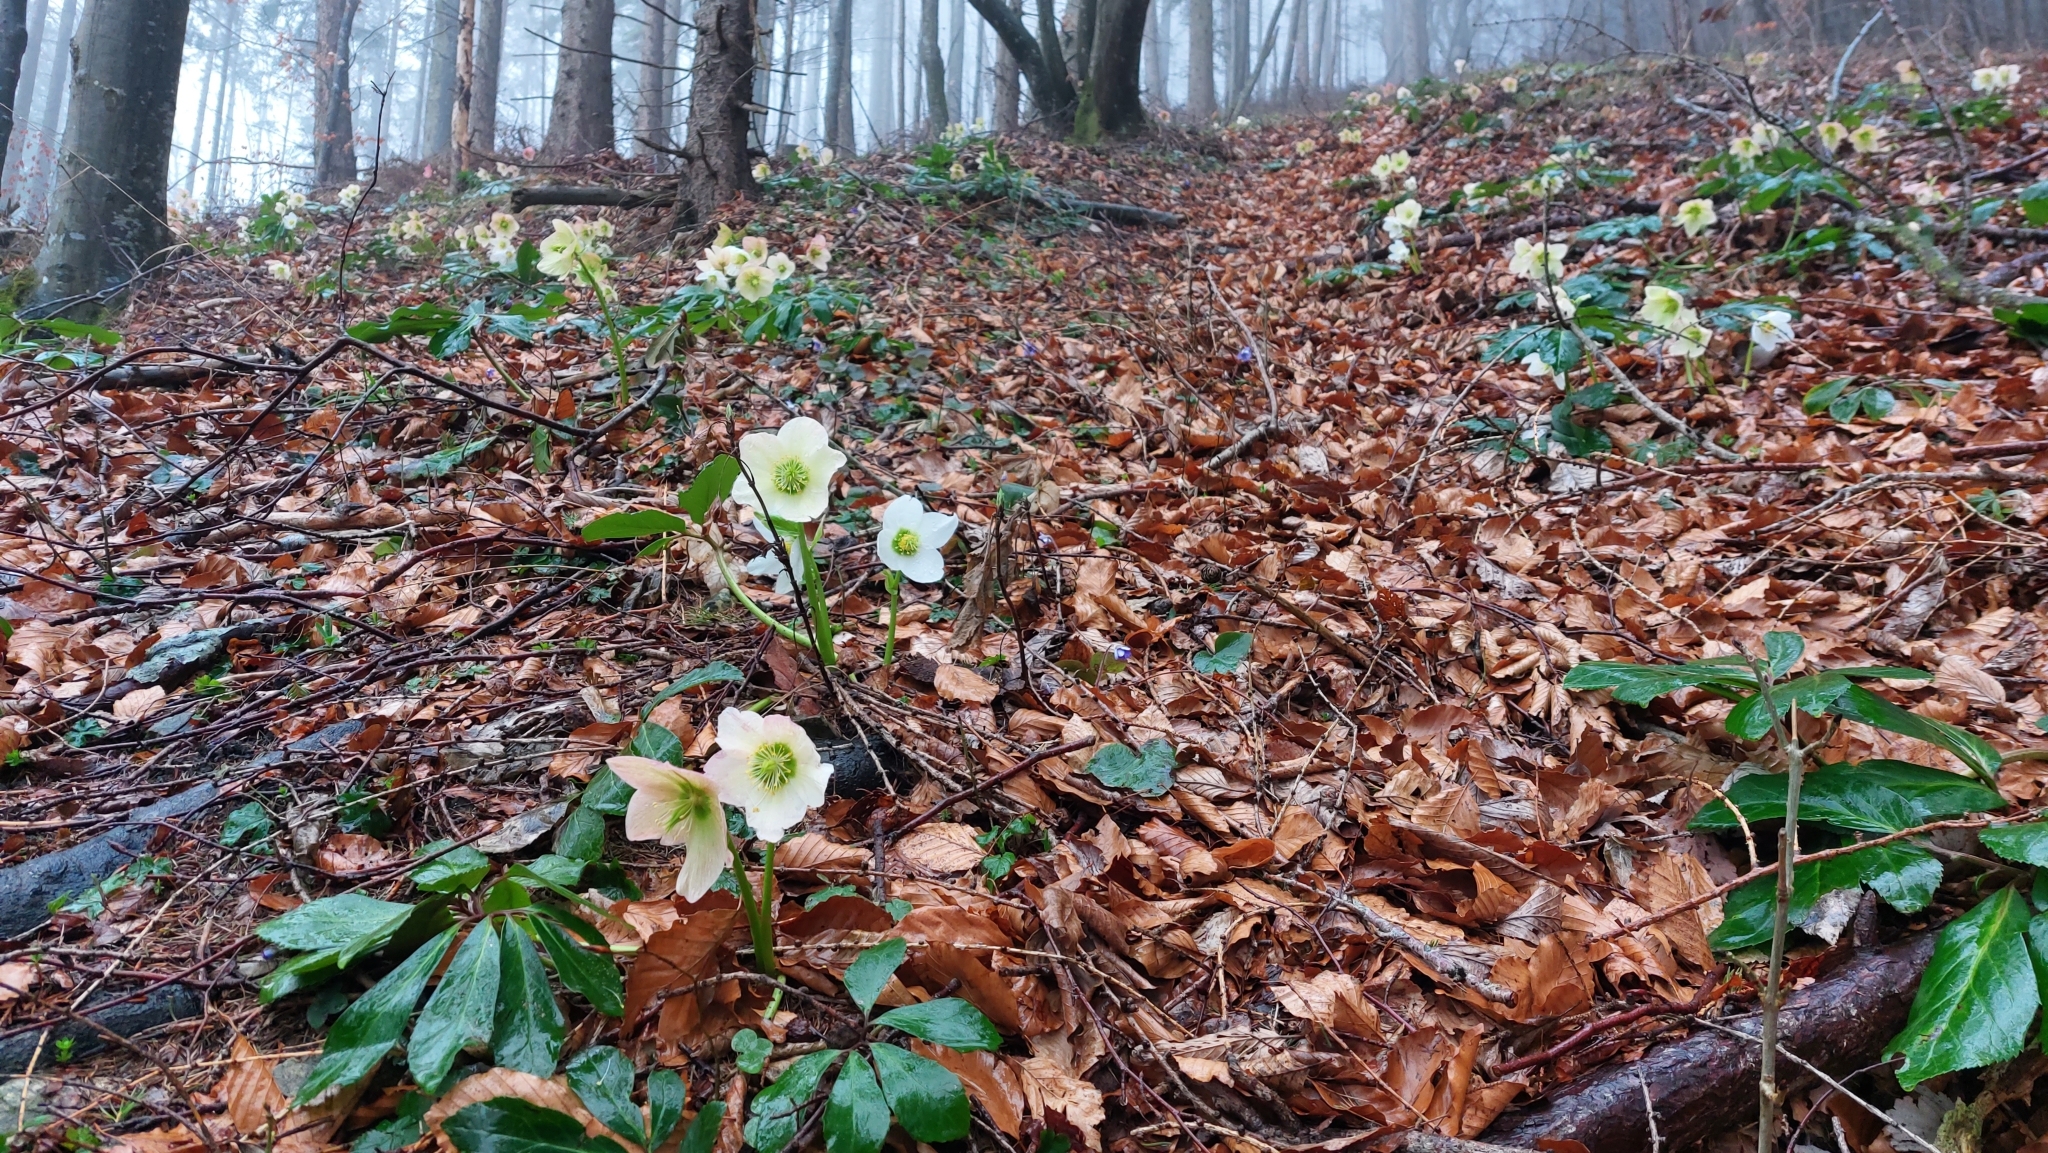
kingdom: Plantae
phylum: Tracheophyta
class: Magnoliopsida
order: Ranunculales
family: Ranunculaceae
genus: Helleborus
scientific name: Helleborus niger
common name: Black hellebore
